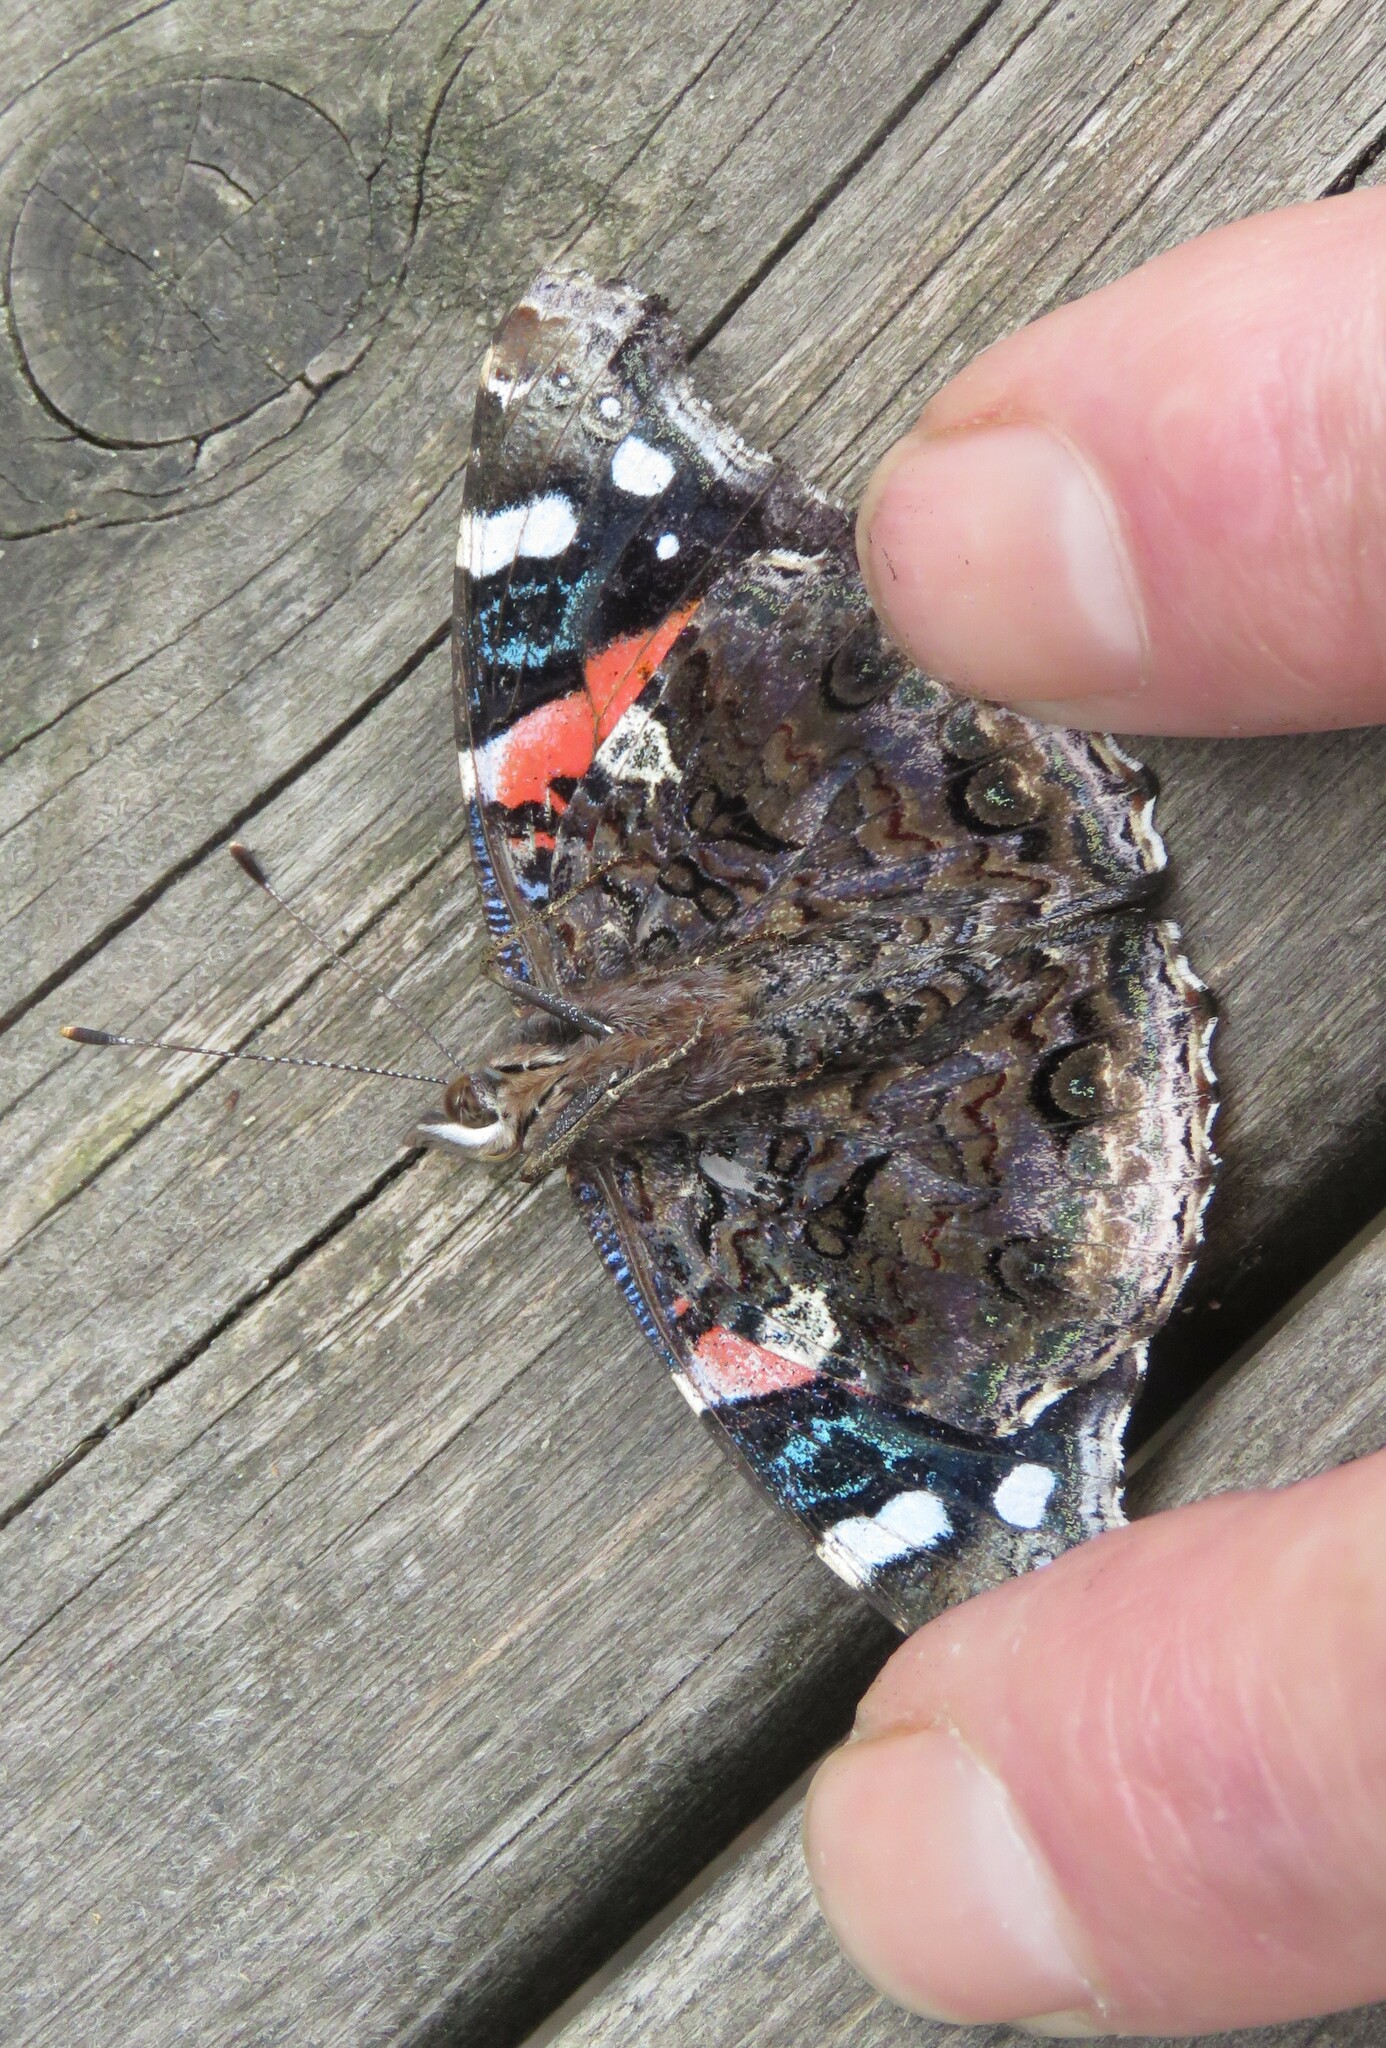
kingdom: Animalia
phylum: Arthropoda
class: Insecta
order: Lepidoptera
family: Nymphalidae
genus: Vanessa
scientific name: Vanessa atalanta
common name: Red admiral
